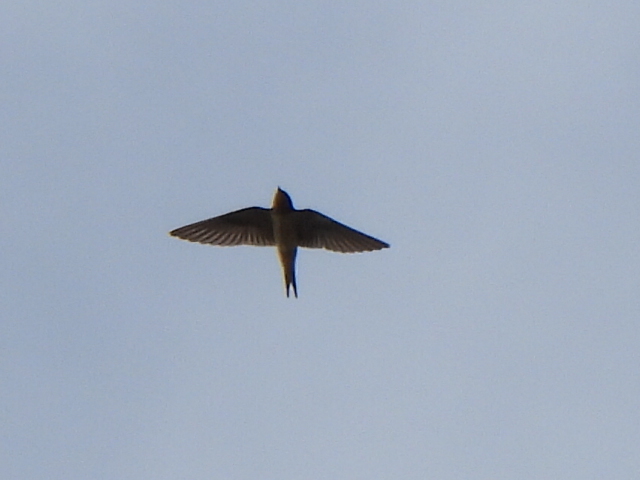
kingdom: Animalia
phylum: Chordata
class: Aves
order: Passeriformes
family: Hirundinidae
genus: Hirundo
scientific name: Hirundo rustica
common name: Barn swallow
